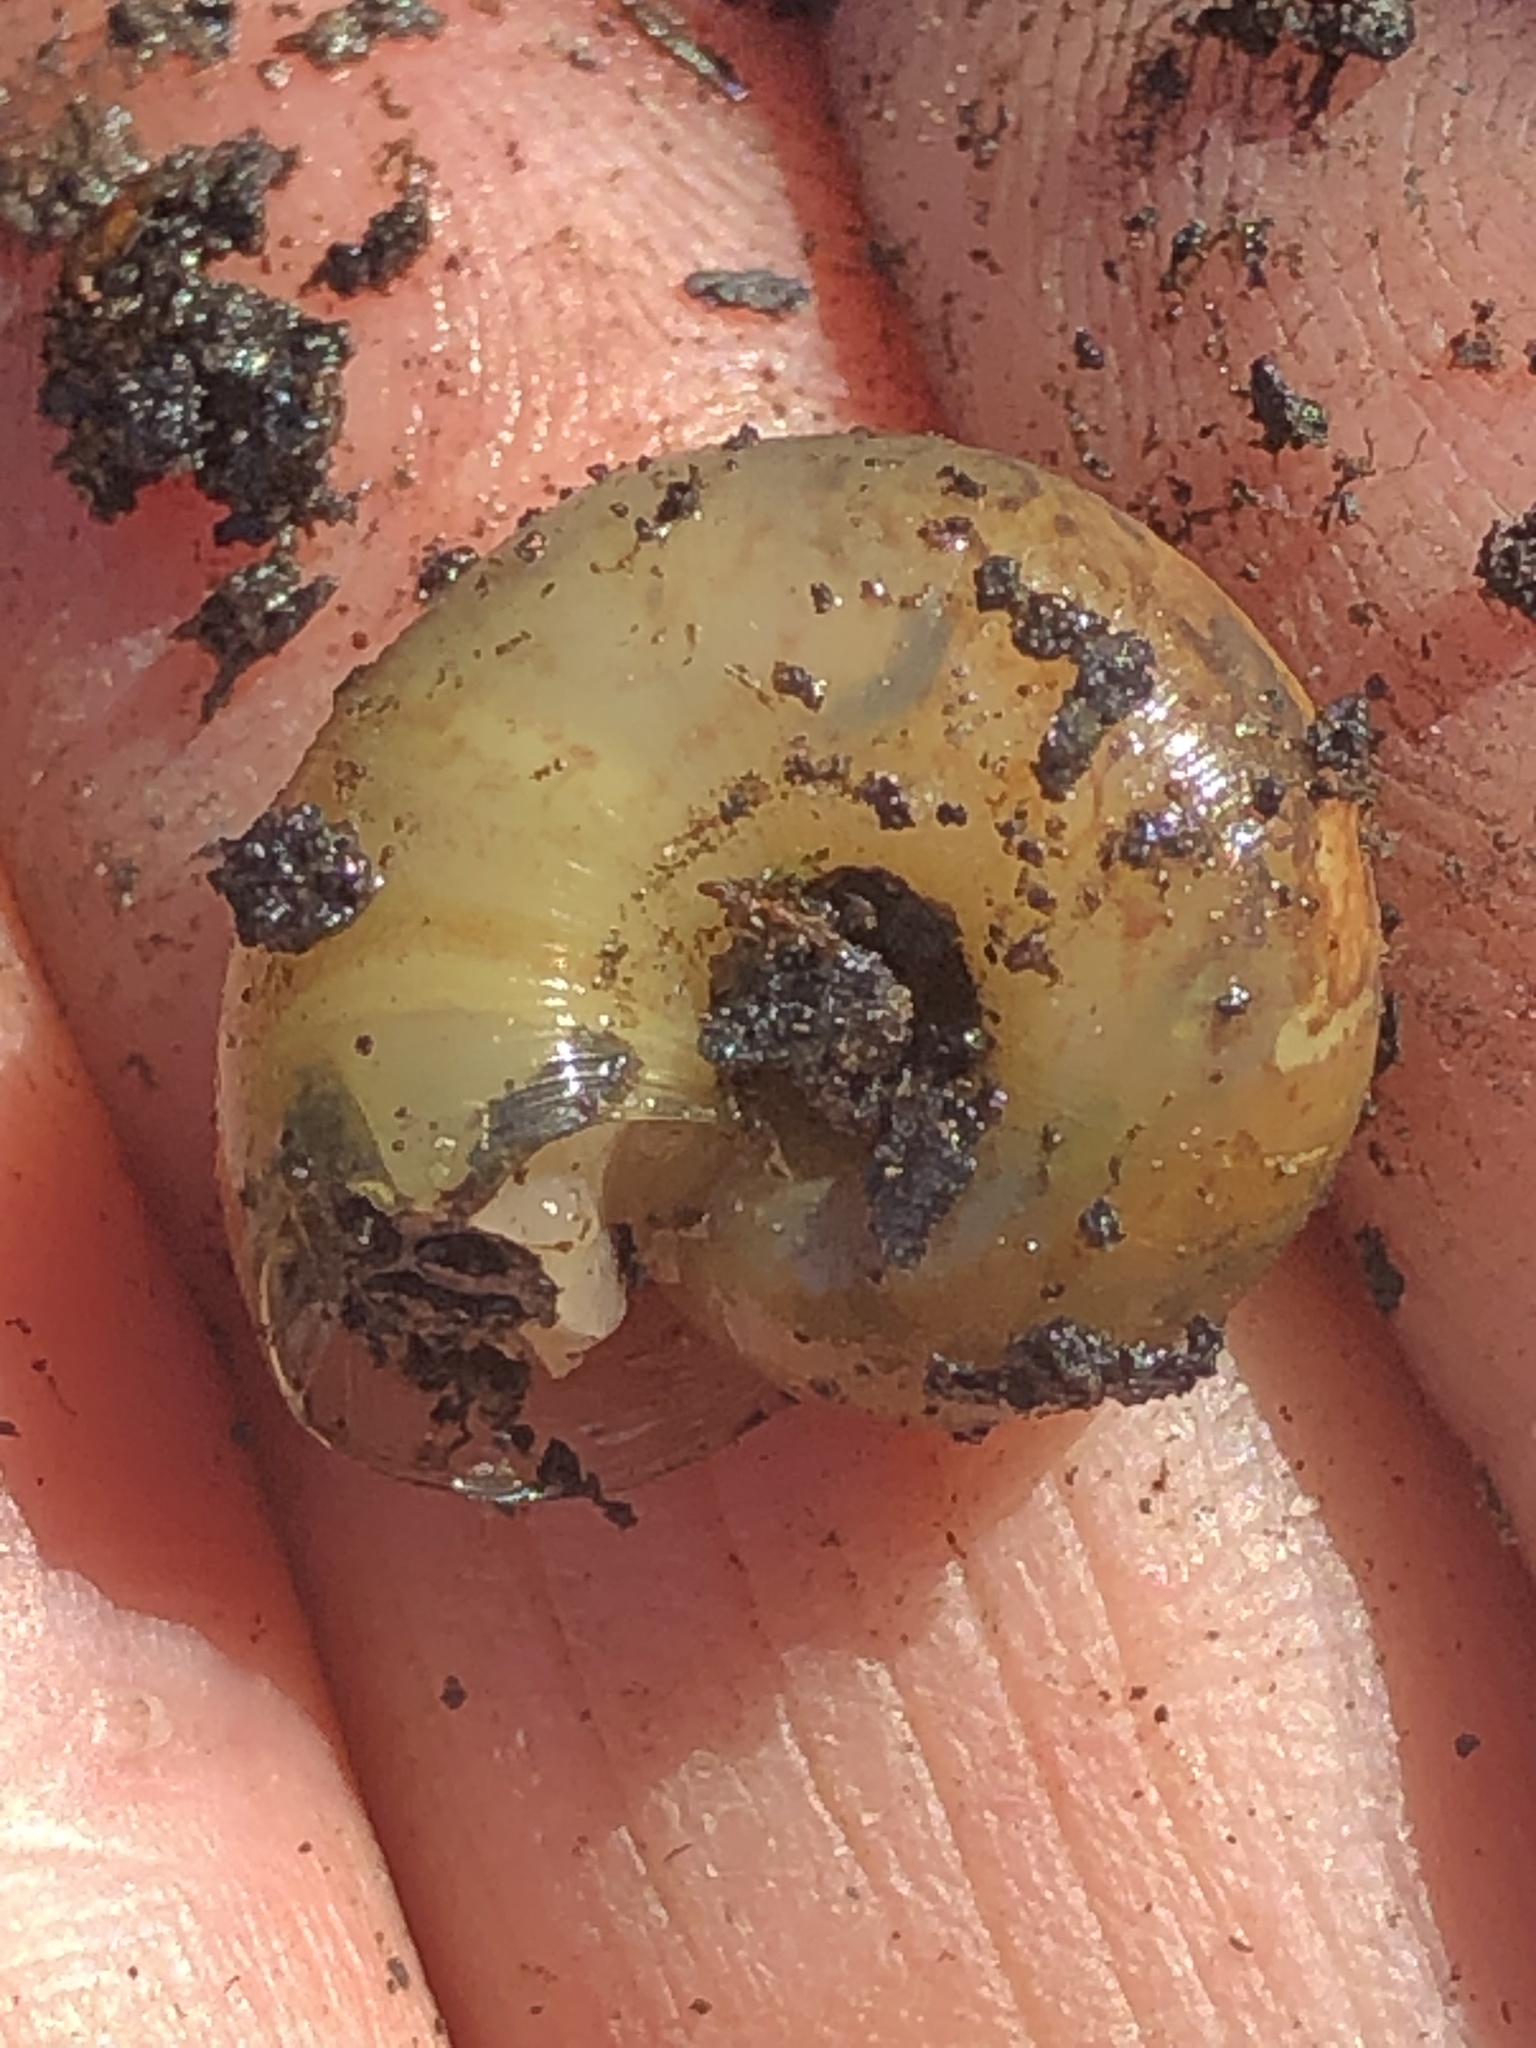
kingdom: Animalia
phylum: Mollusca
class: Gastropoda
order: Stylommatophora
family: Haplotrematidae
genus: Haplotrema
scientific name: Haplotrema minimum
